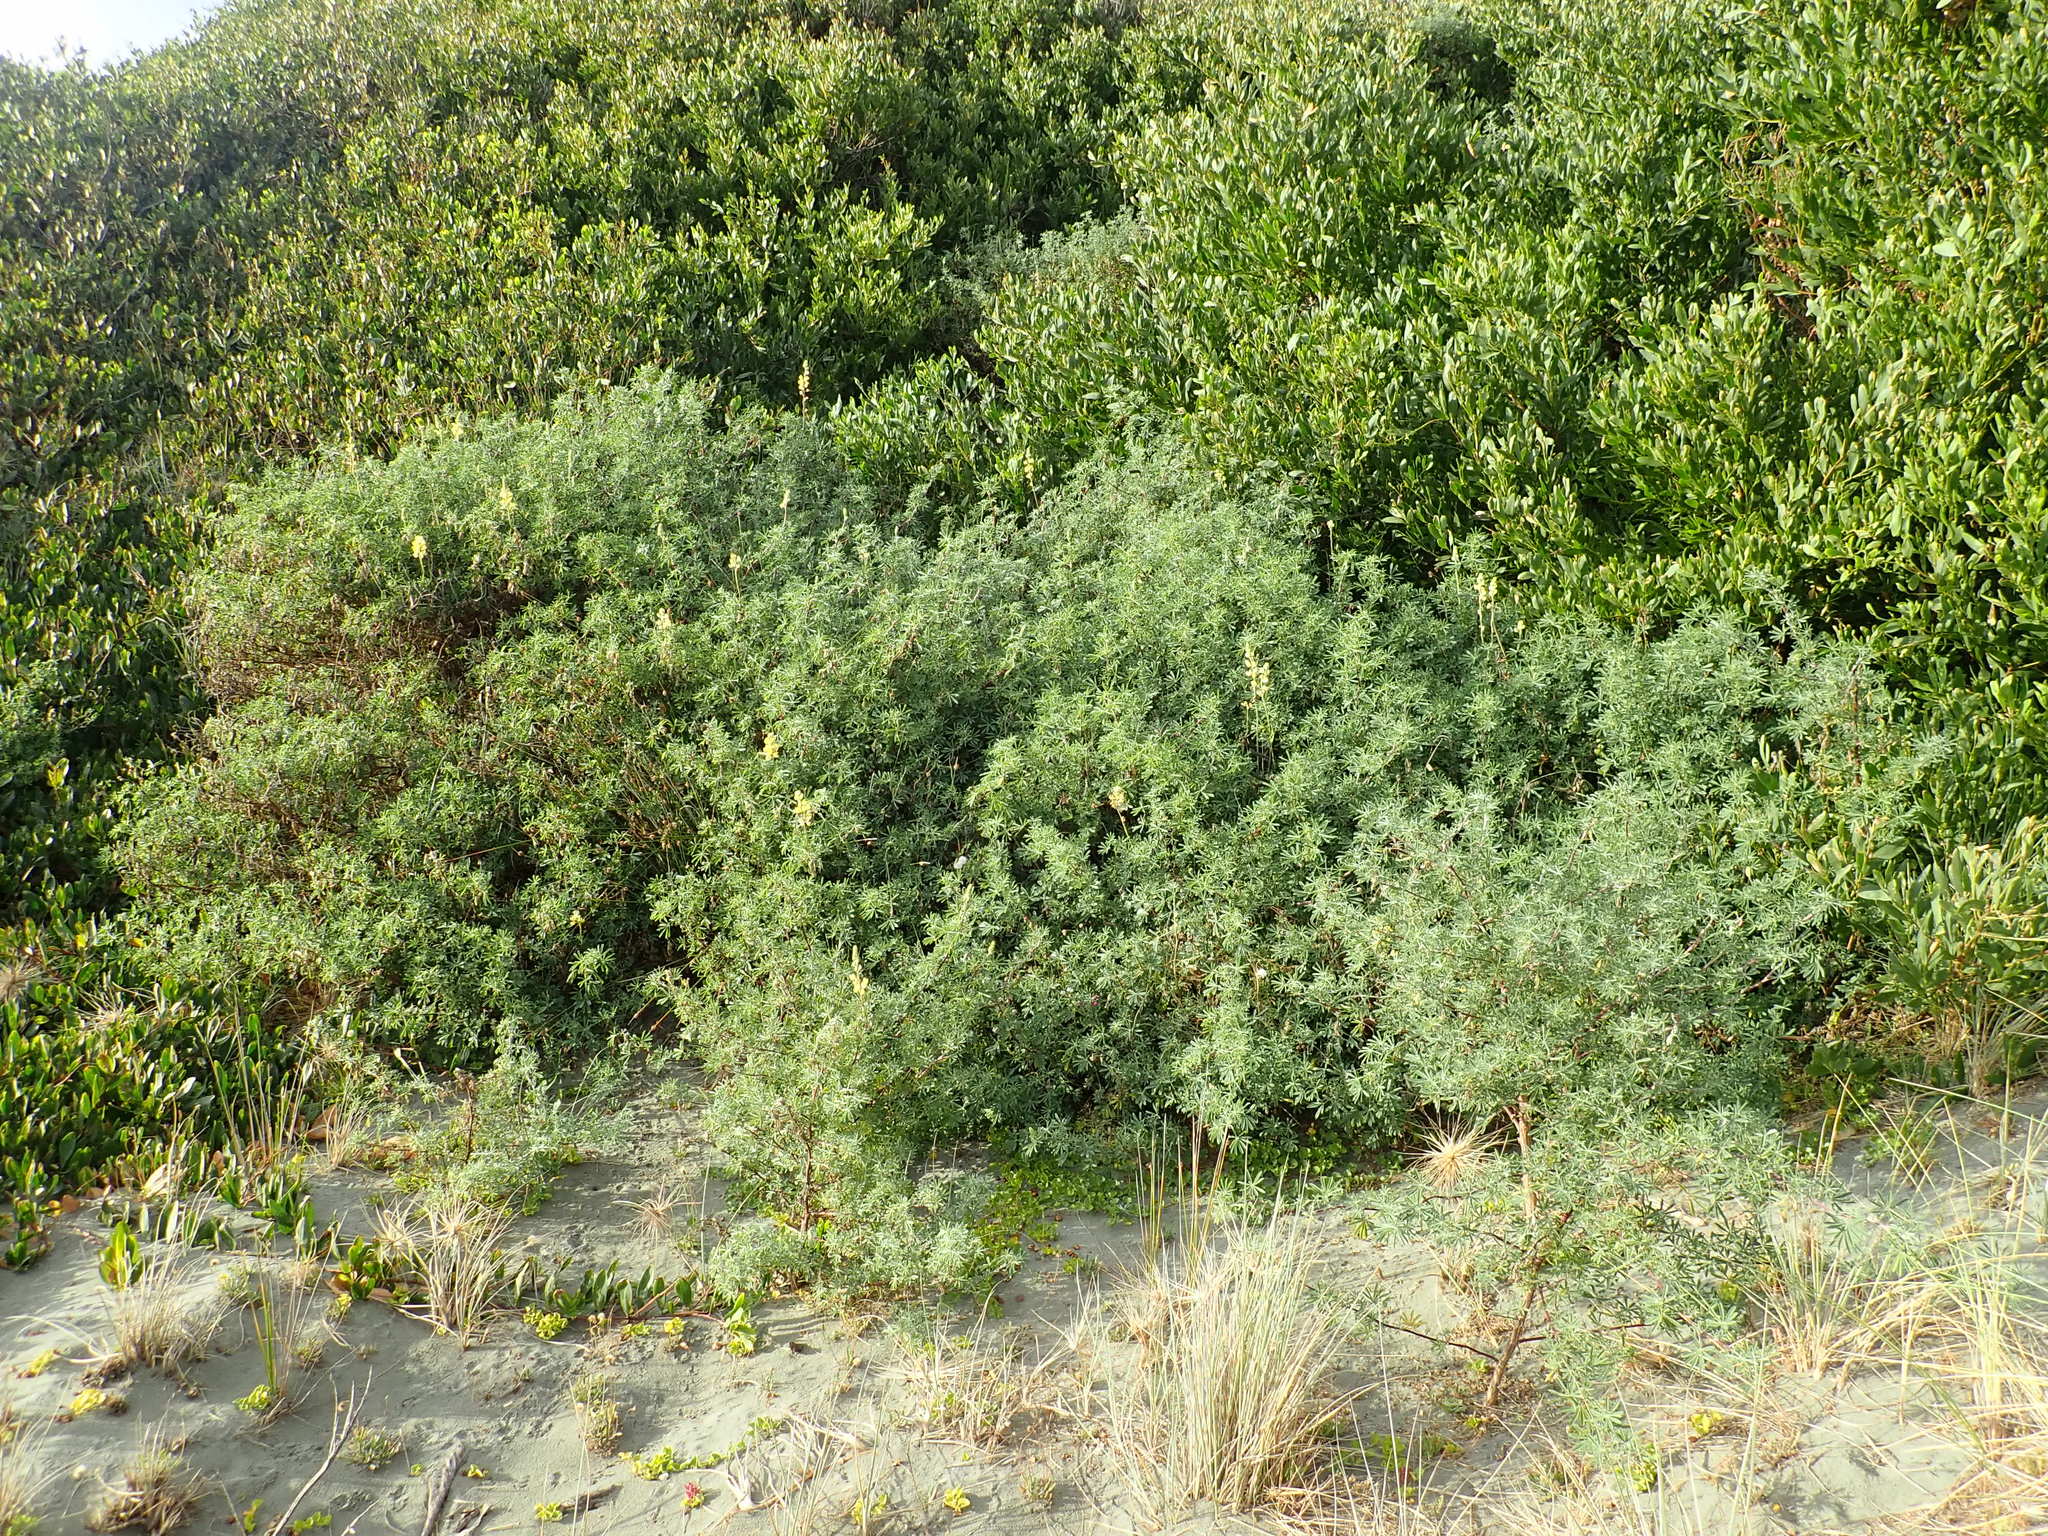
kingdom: Plantae
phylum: Tracheophyta
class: Magnoliopsida
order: Fabales
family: Fabaceae
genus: Lupinus
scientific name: Lupinus arboreus
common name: Yellow bush lupine
